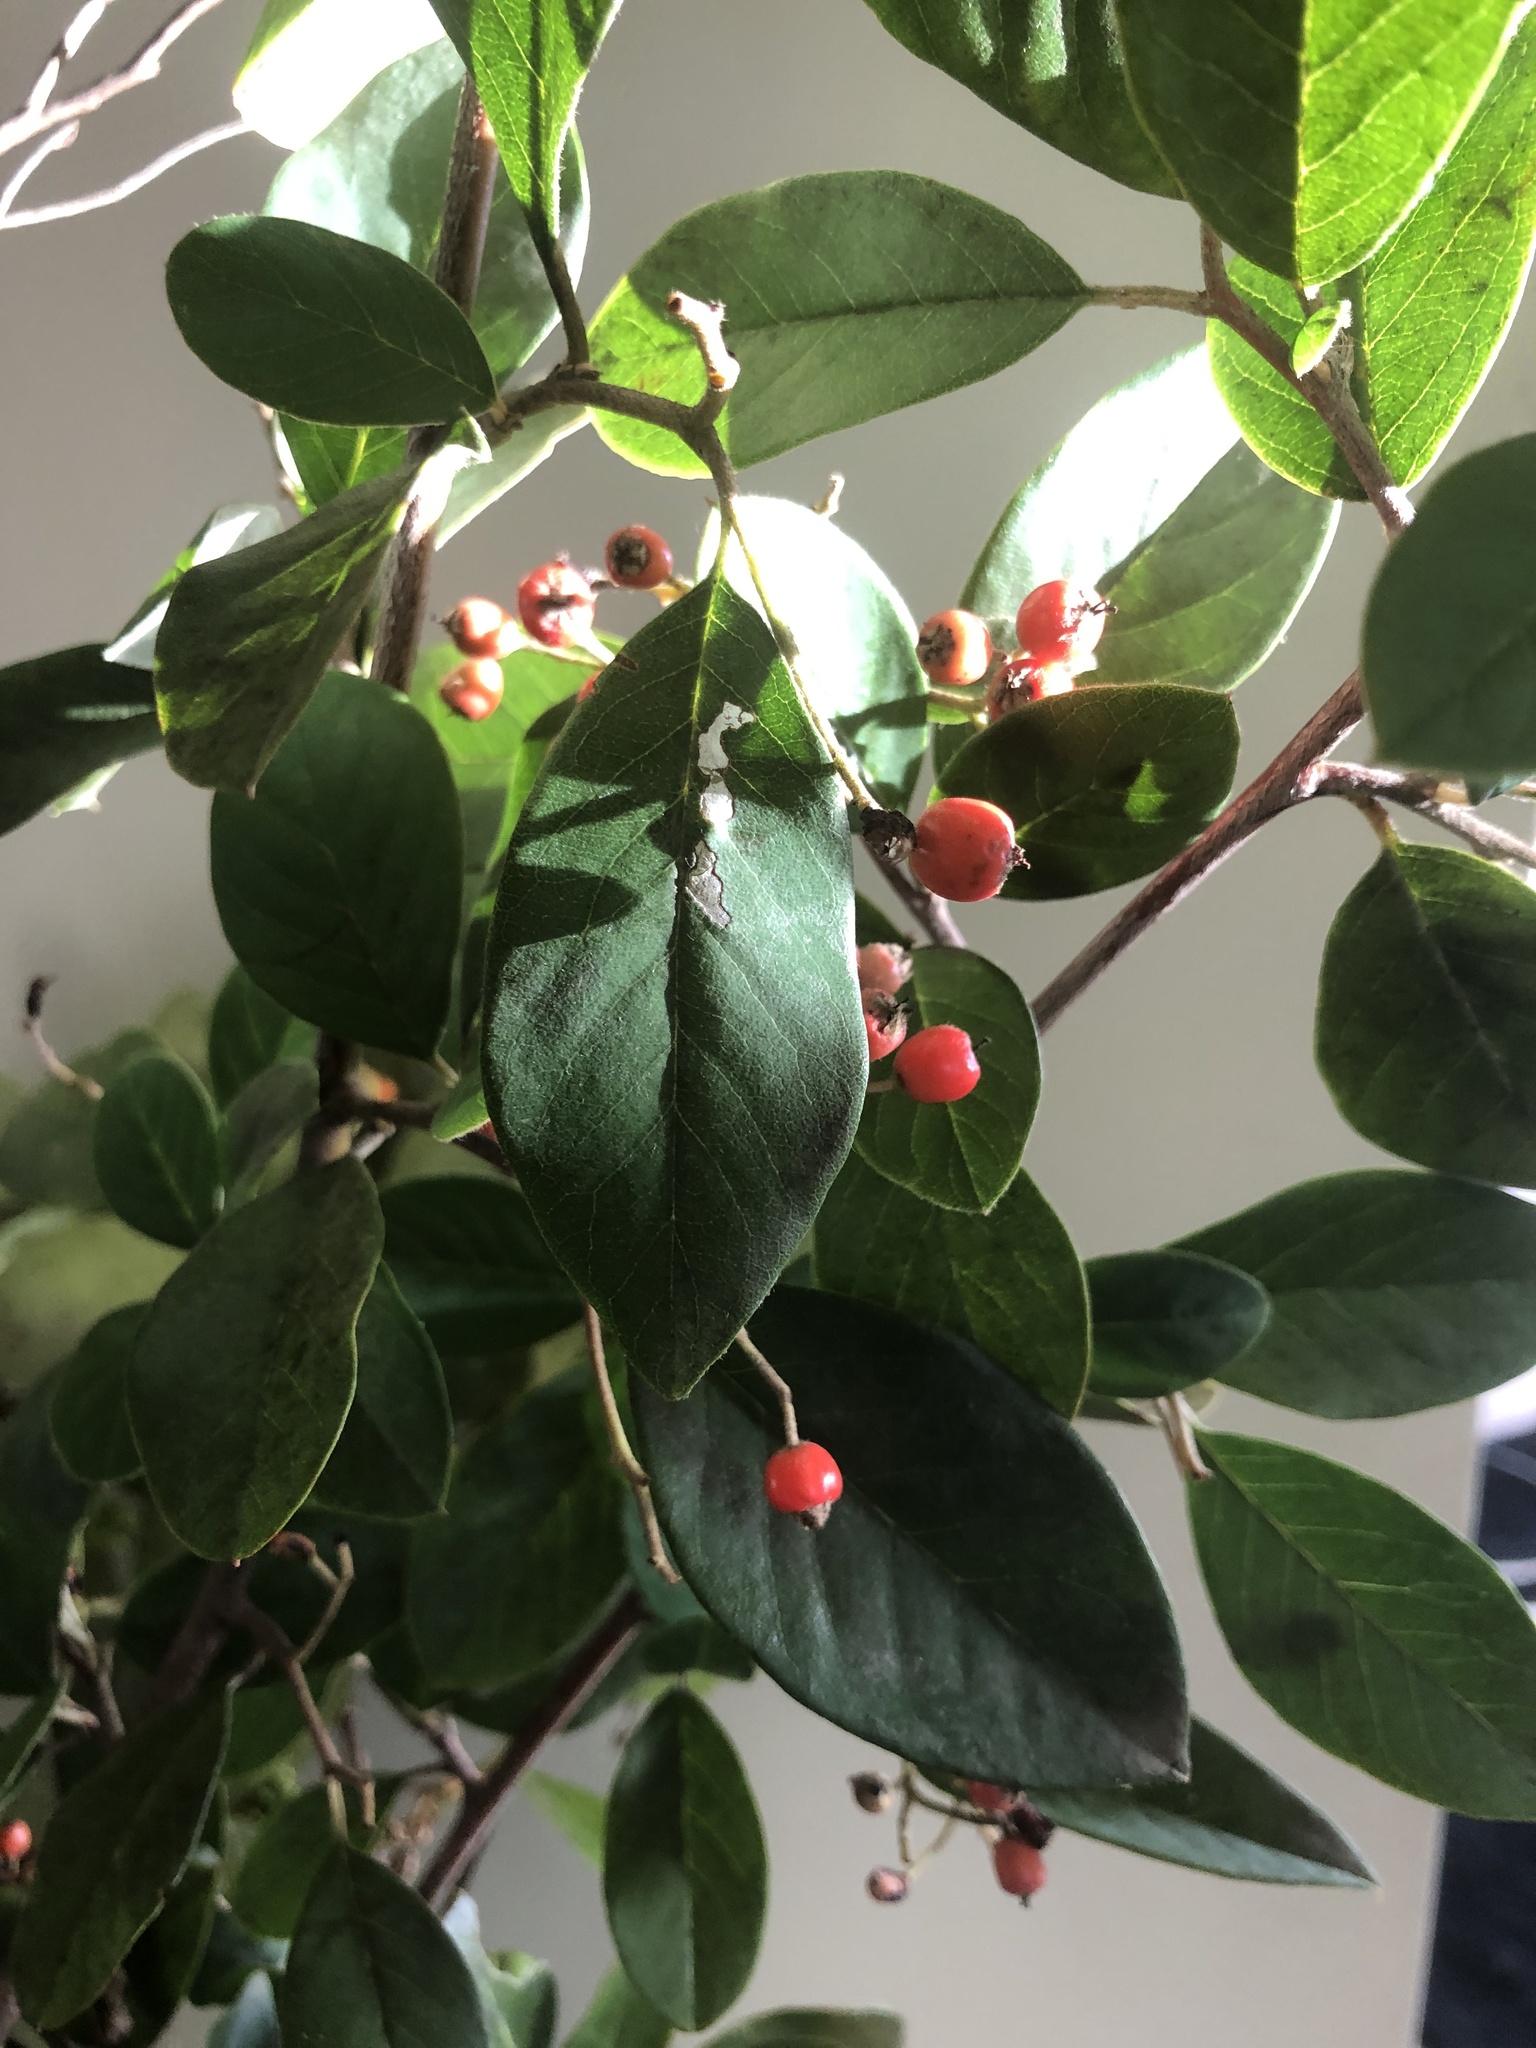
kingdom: Plantae
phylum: Tracheophyta
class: Magnoliopsida
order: Rosales
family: Rosaceae
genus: Cotoneaster
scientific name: Cotoneaster glaucophyllus
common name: Glaucous cotoneaster
